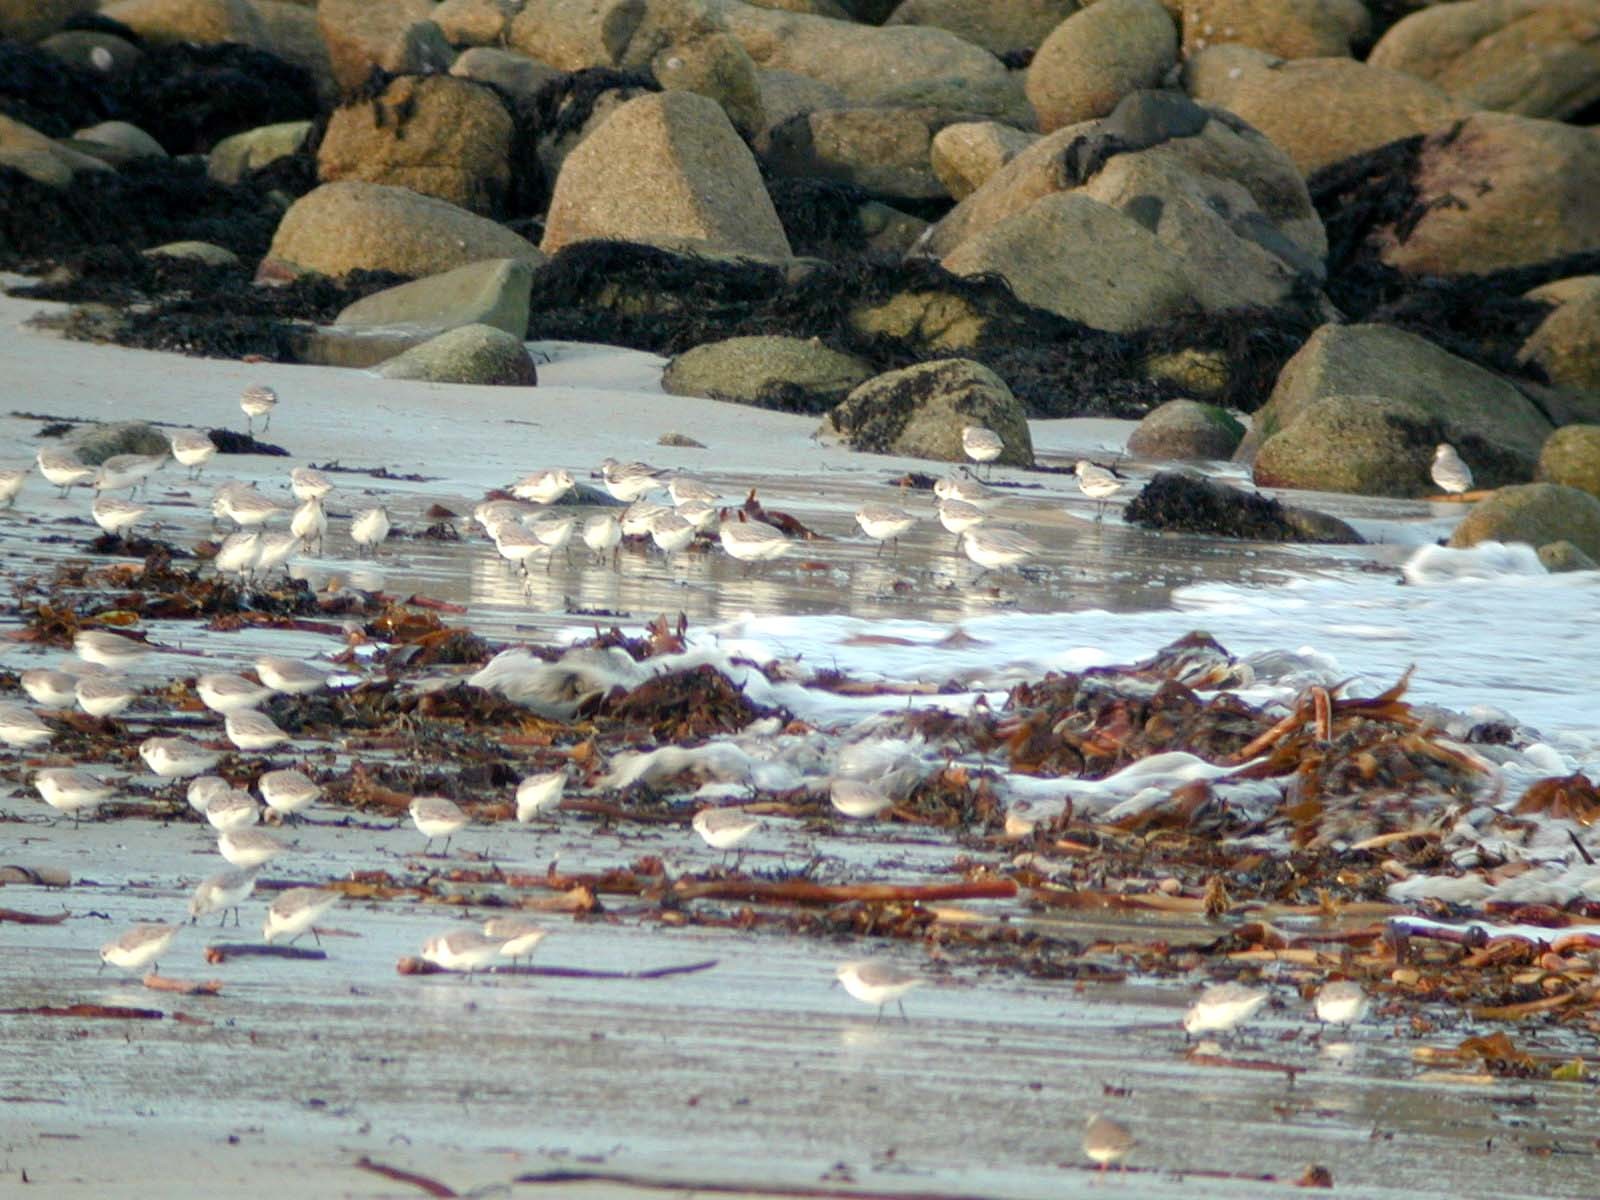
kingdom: Animalia
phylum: Chordata
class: Aves
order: Charadriiformes
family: Scolopacidae
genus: Calidris
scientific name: Calidris alba
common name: Sanderling
